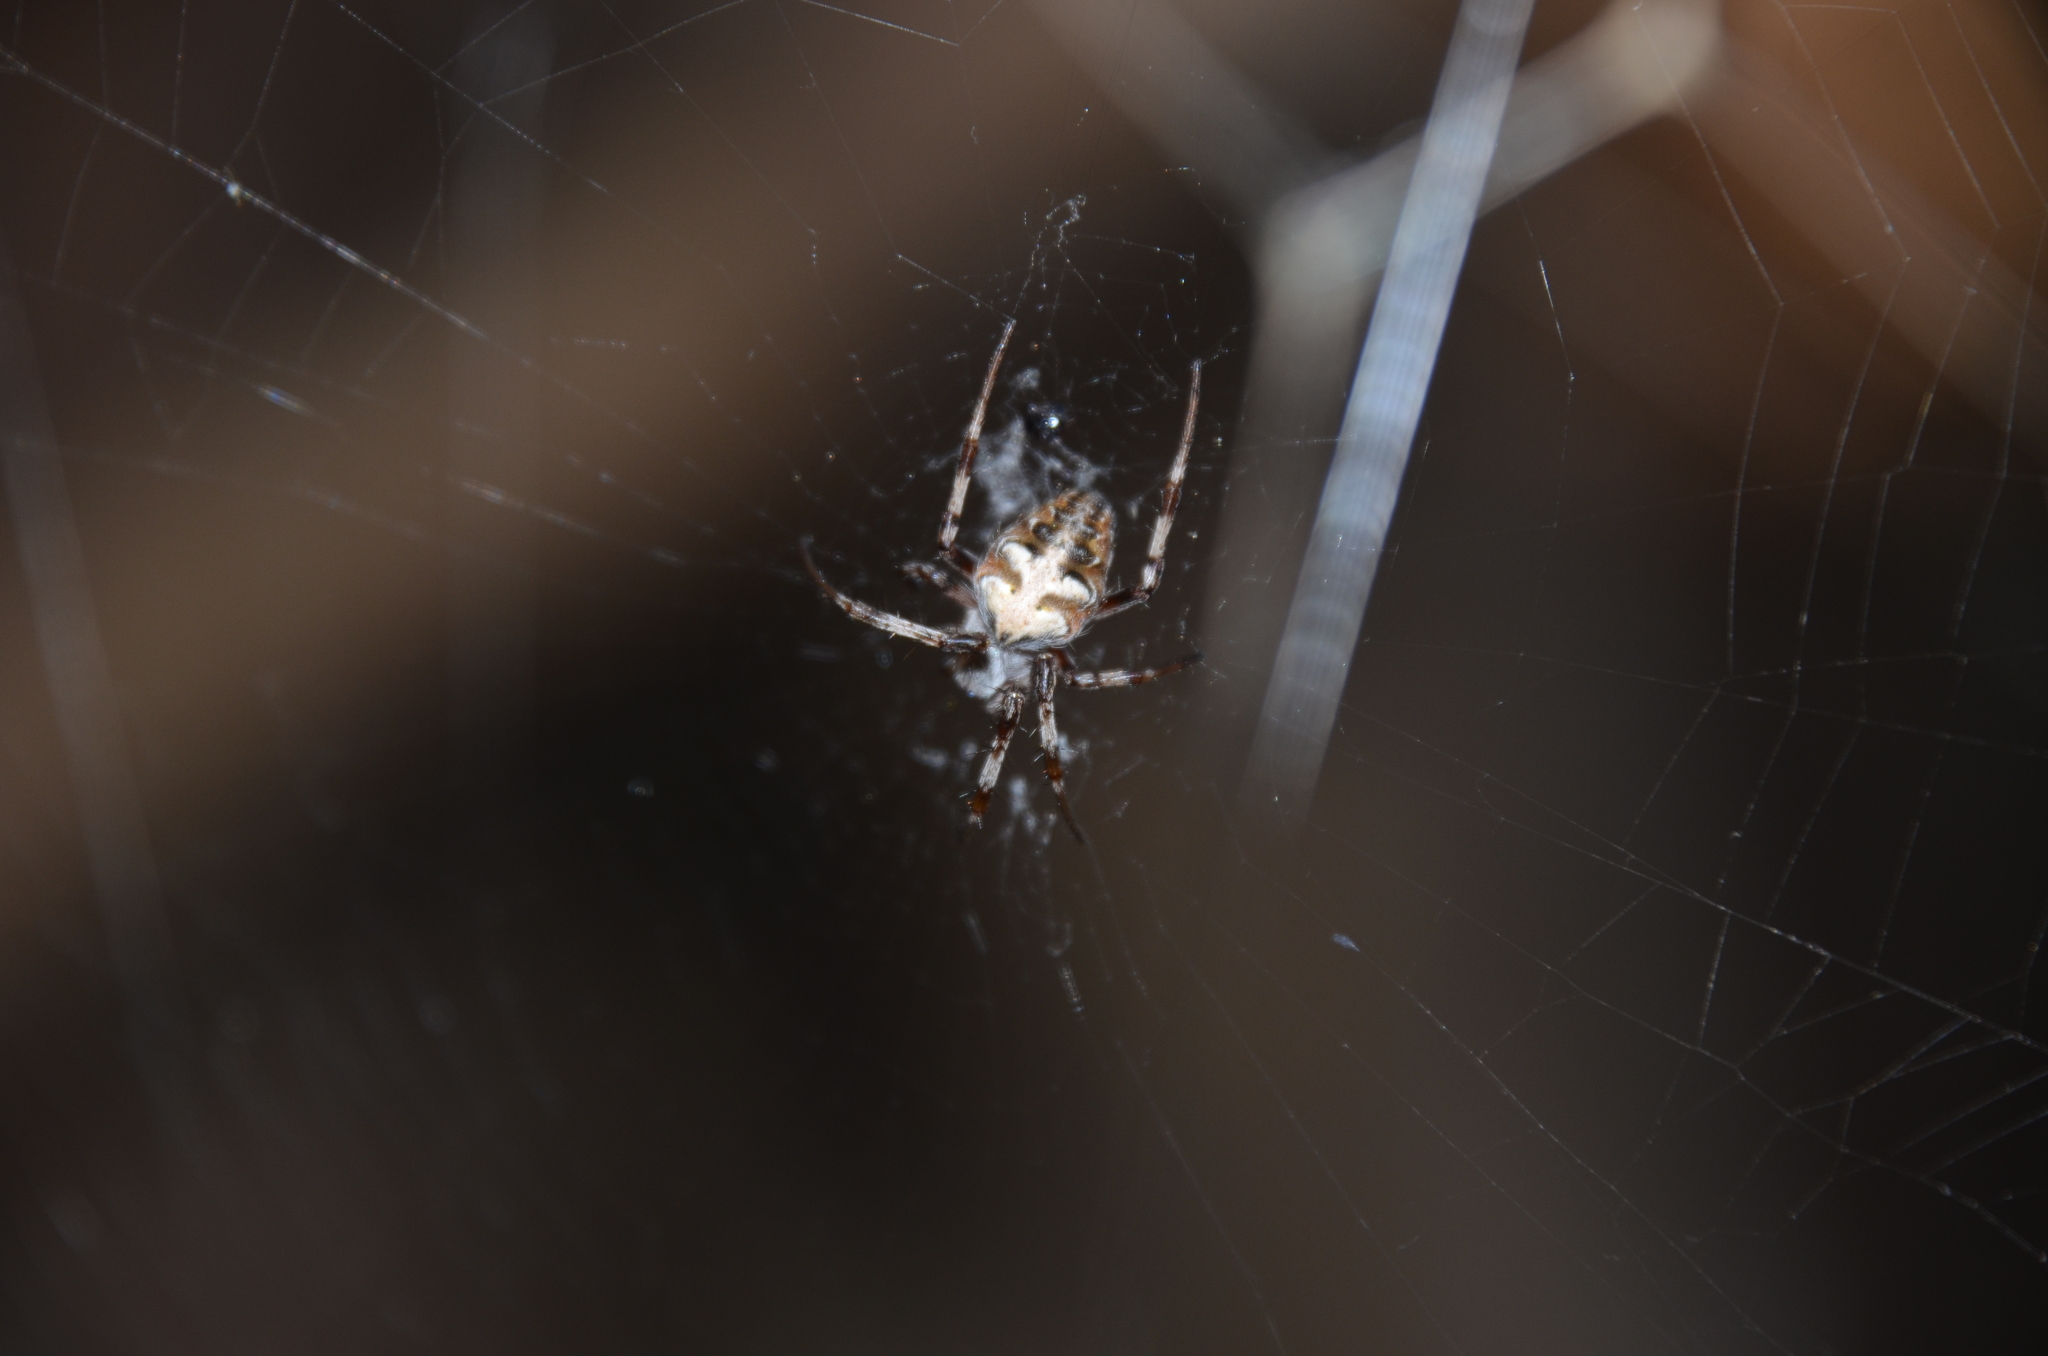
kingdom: Animalia
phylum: Arthropoda
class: Arachnida
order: Araneae
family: Araneidae
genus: Metepeira
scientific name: Metepeira
